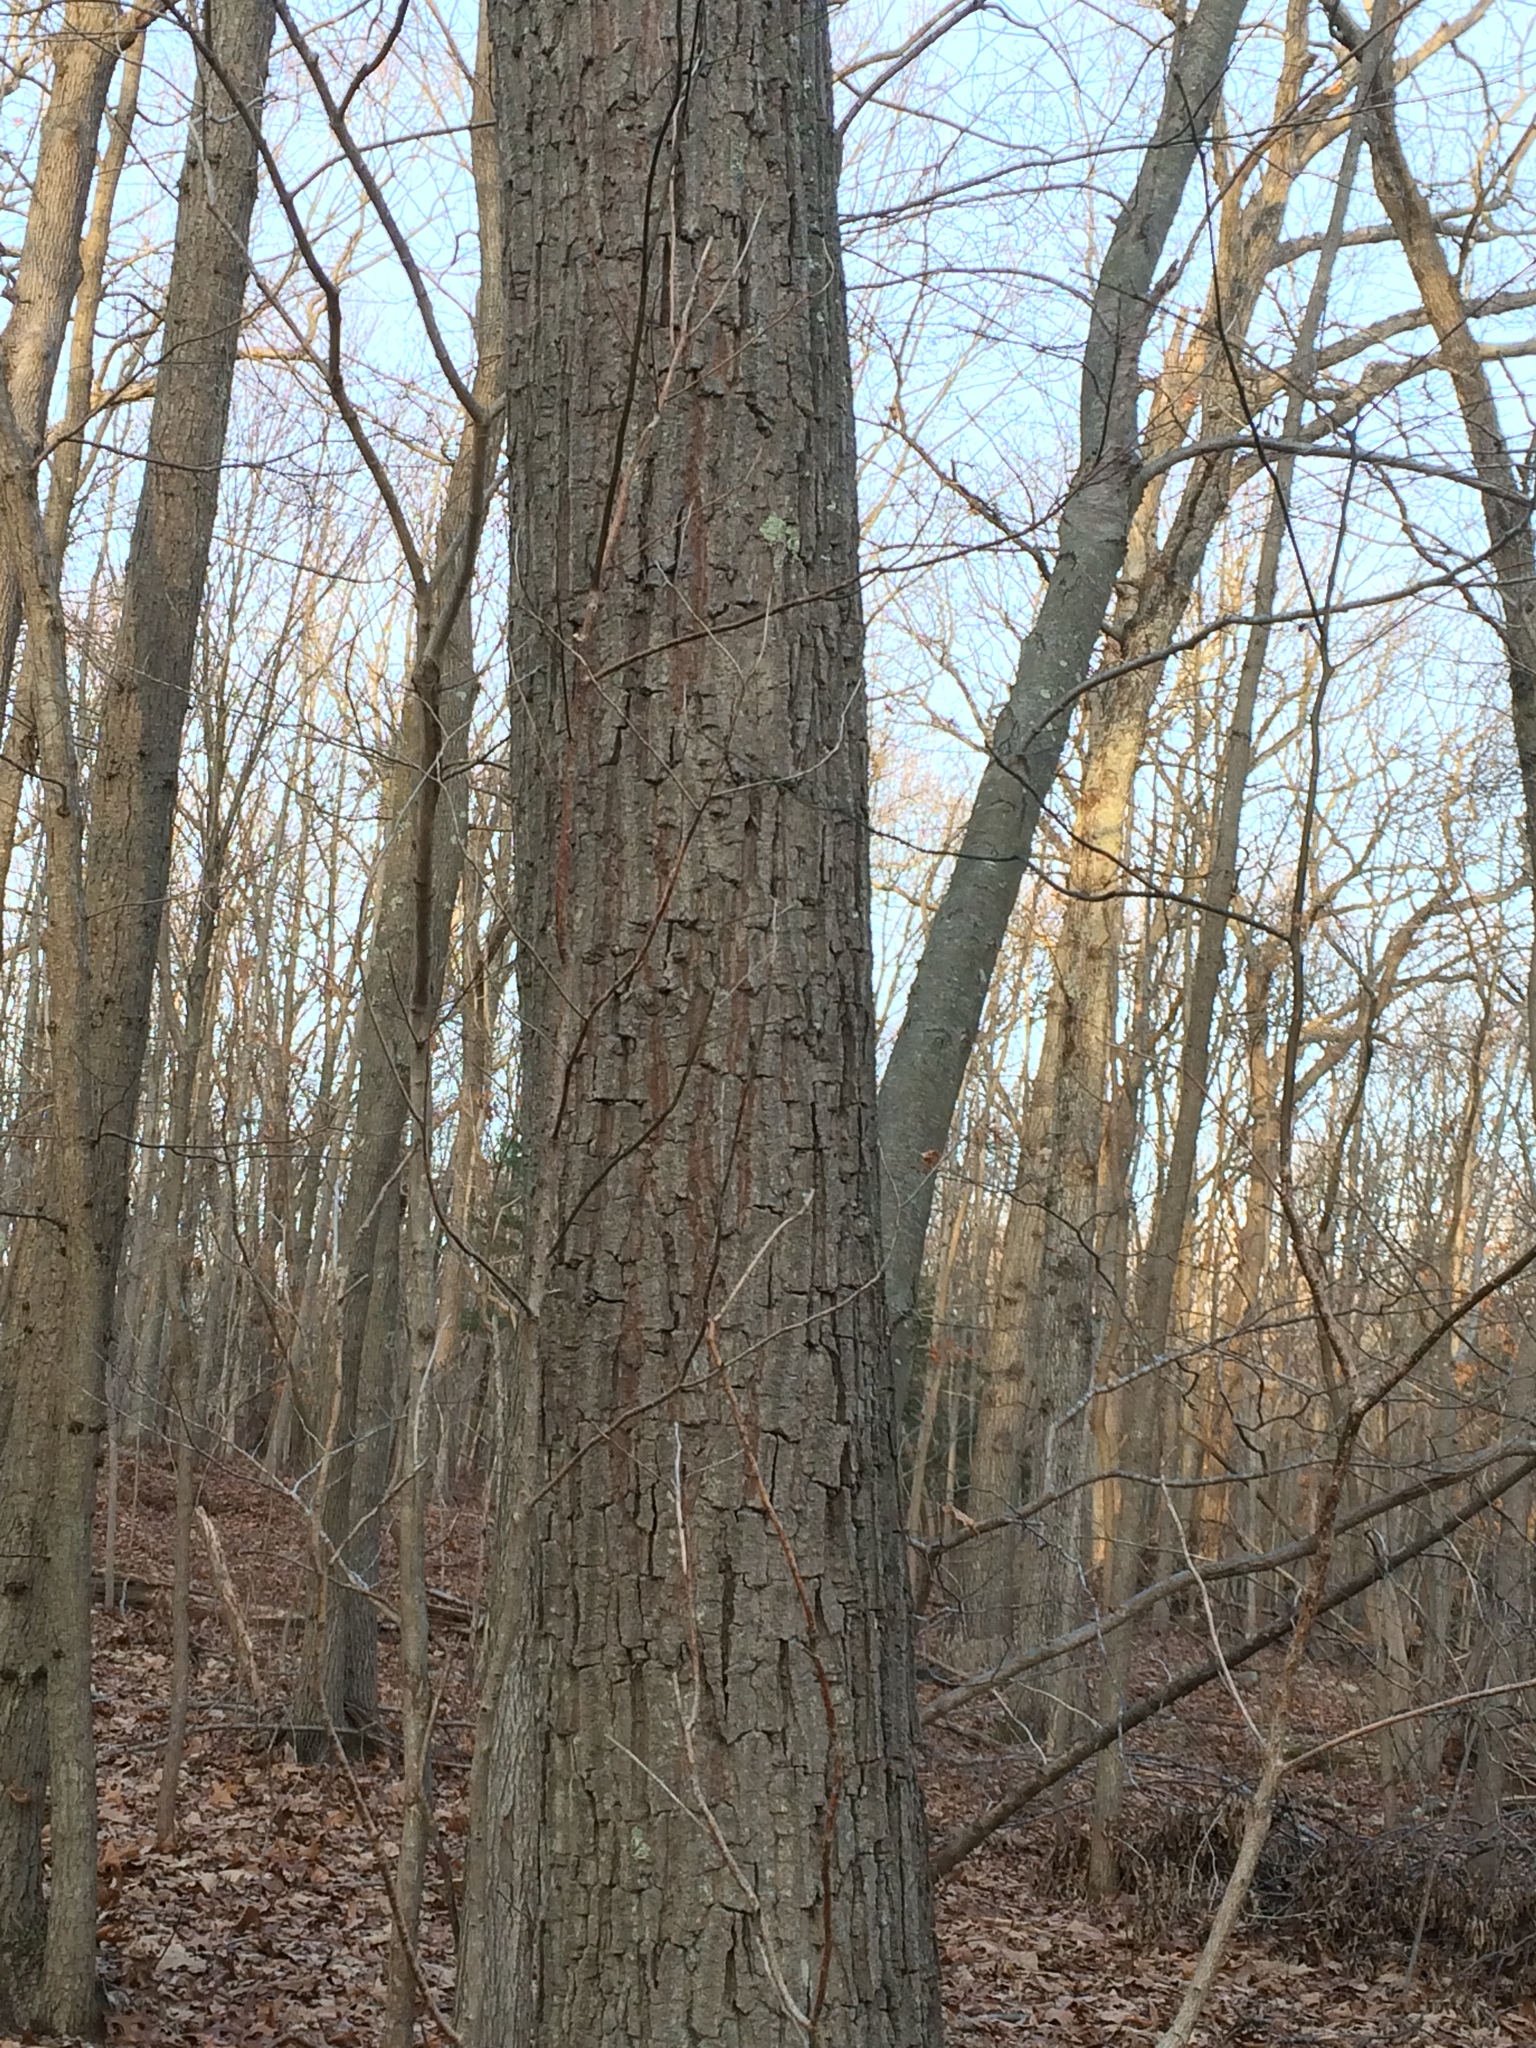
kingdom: Plantae
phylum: Tracheophyta
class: Magnoliopsida
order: Fagales
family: Fagaceae
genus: Quercus
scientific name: Quercus montana
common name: Chestnut oak
